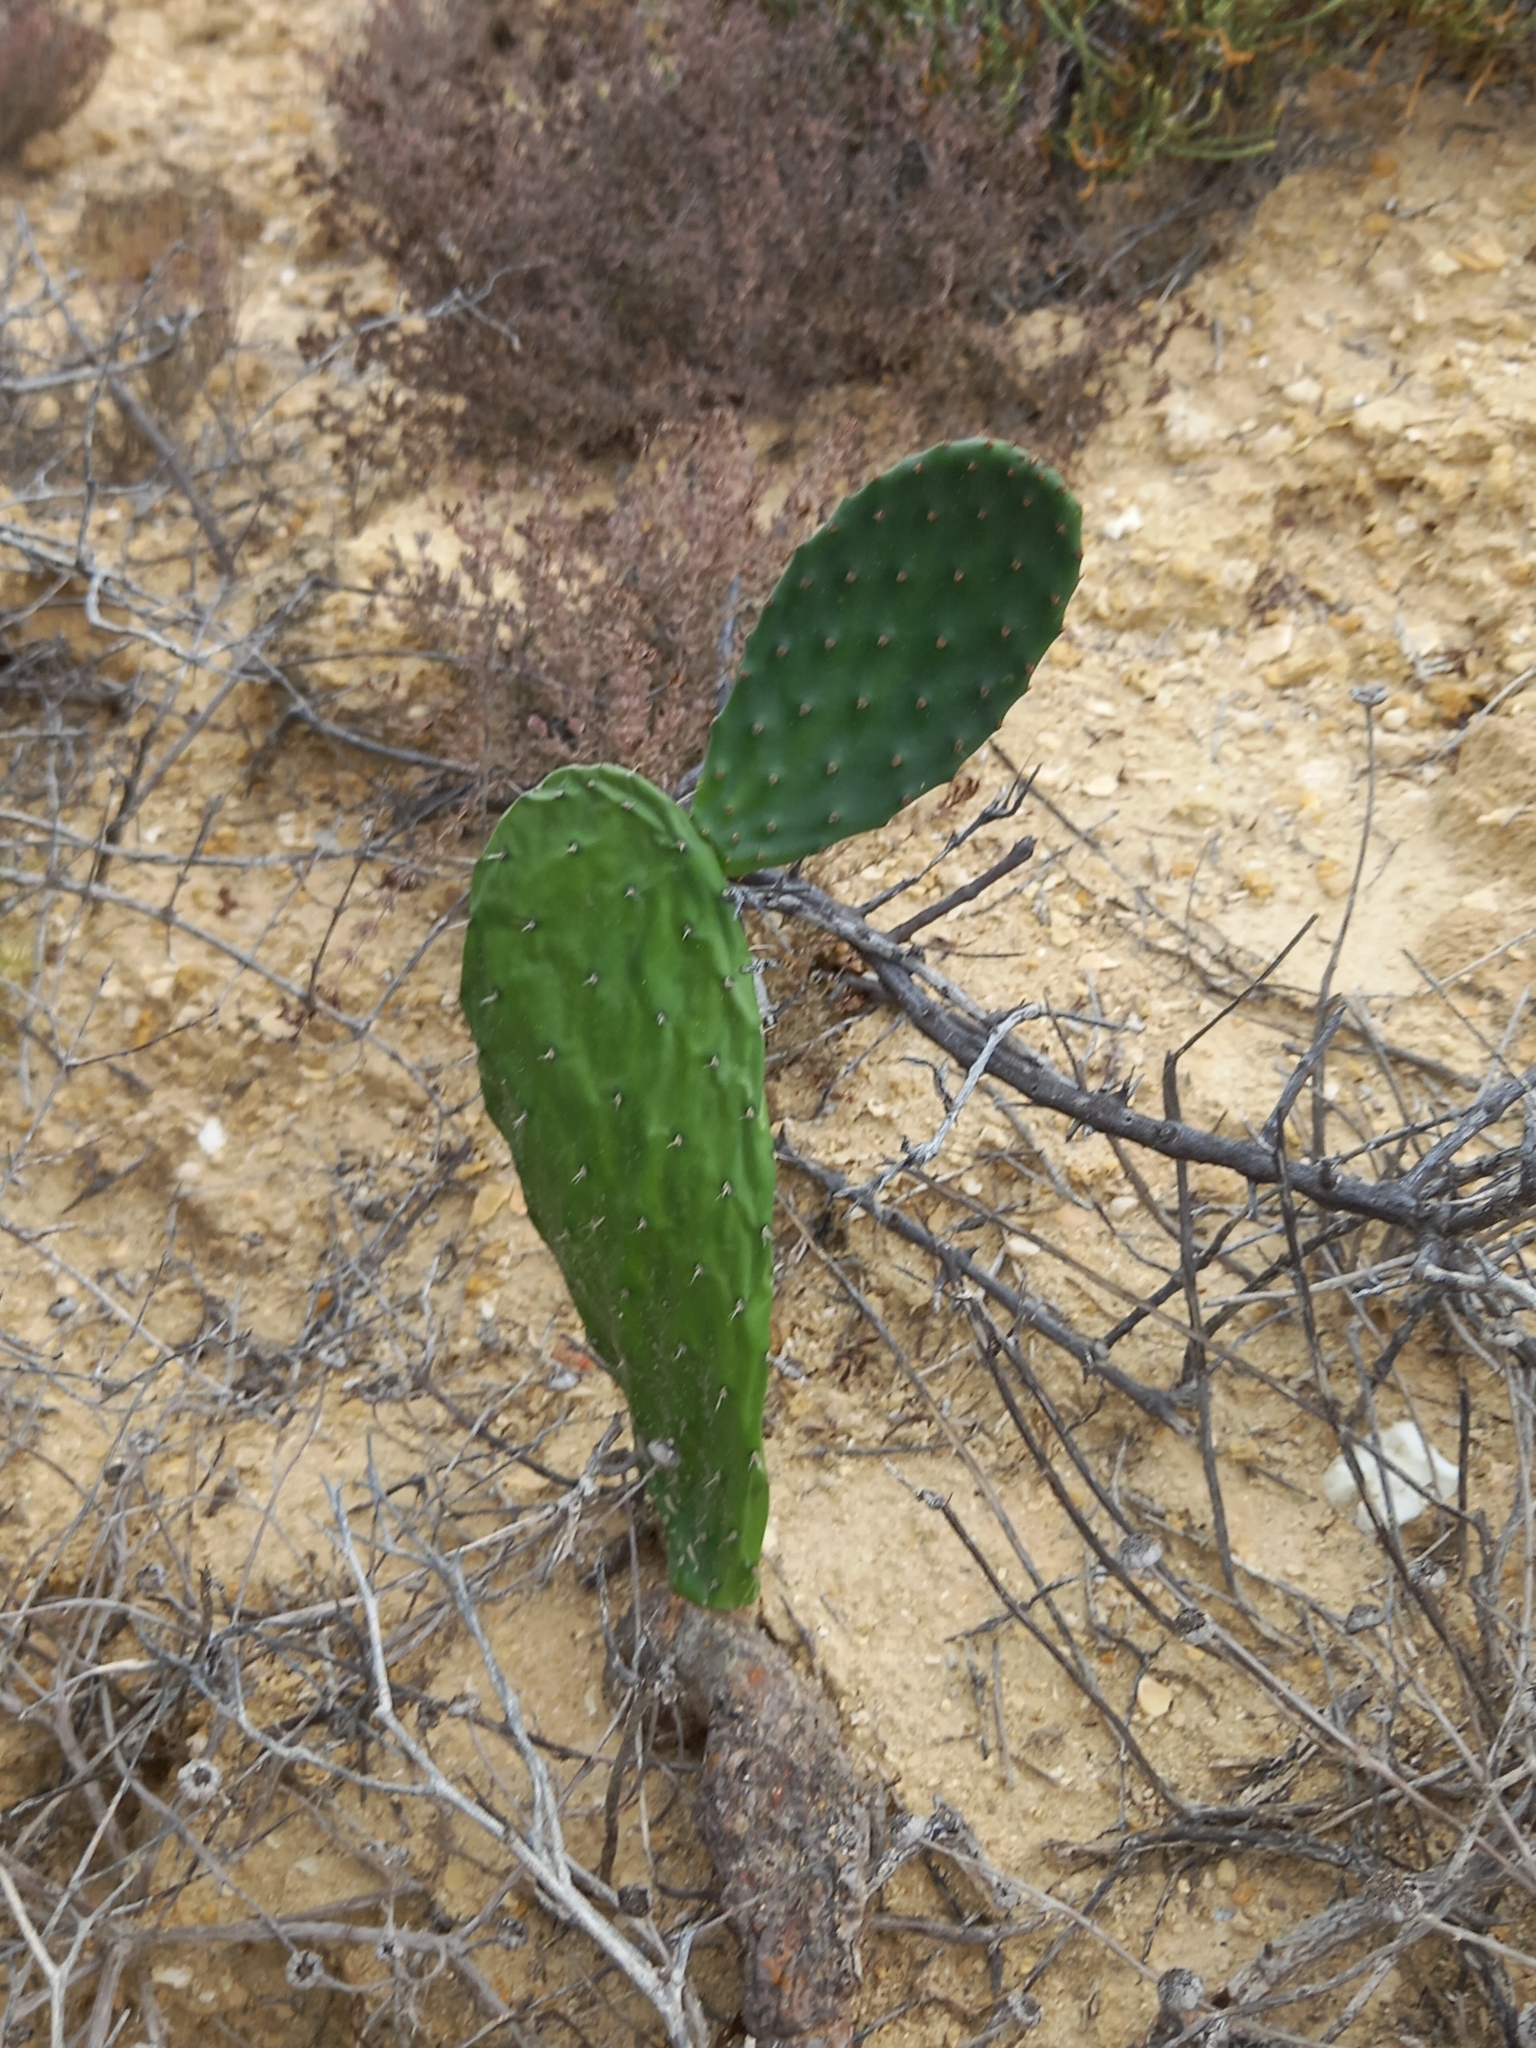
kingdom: Plantae
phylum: Tracheophyta
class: Magnoliopsida
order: Caryophyllales
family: Cactaceae
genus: Opuntia
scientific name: Opuntia ficus-indica
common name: Barbary fig
